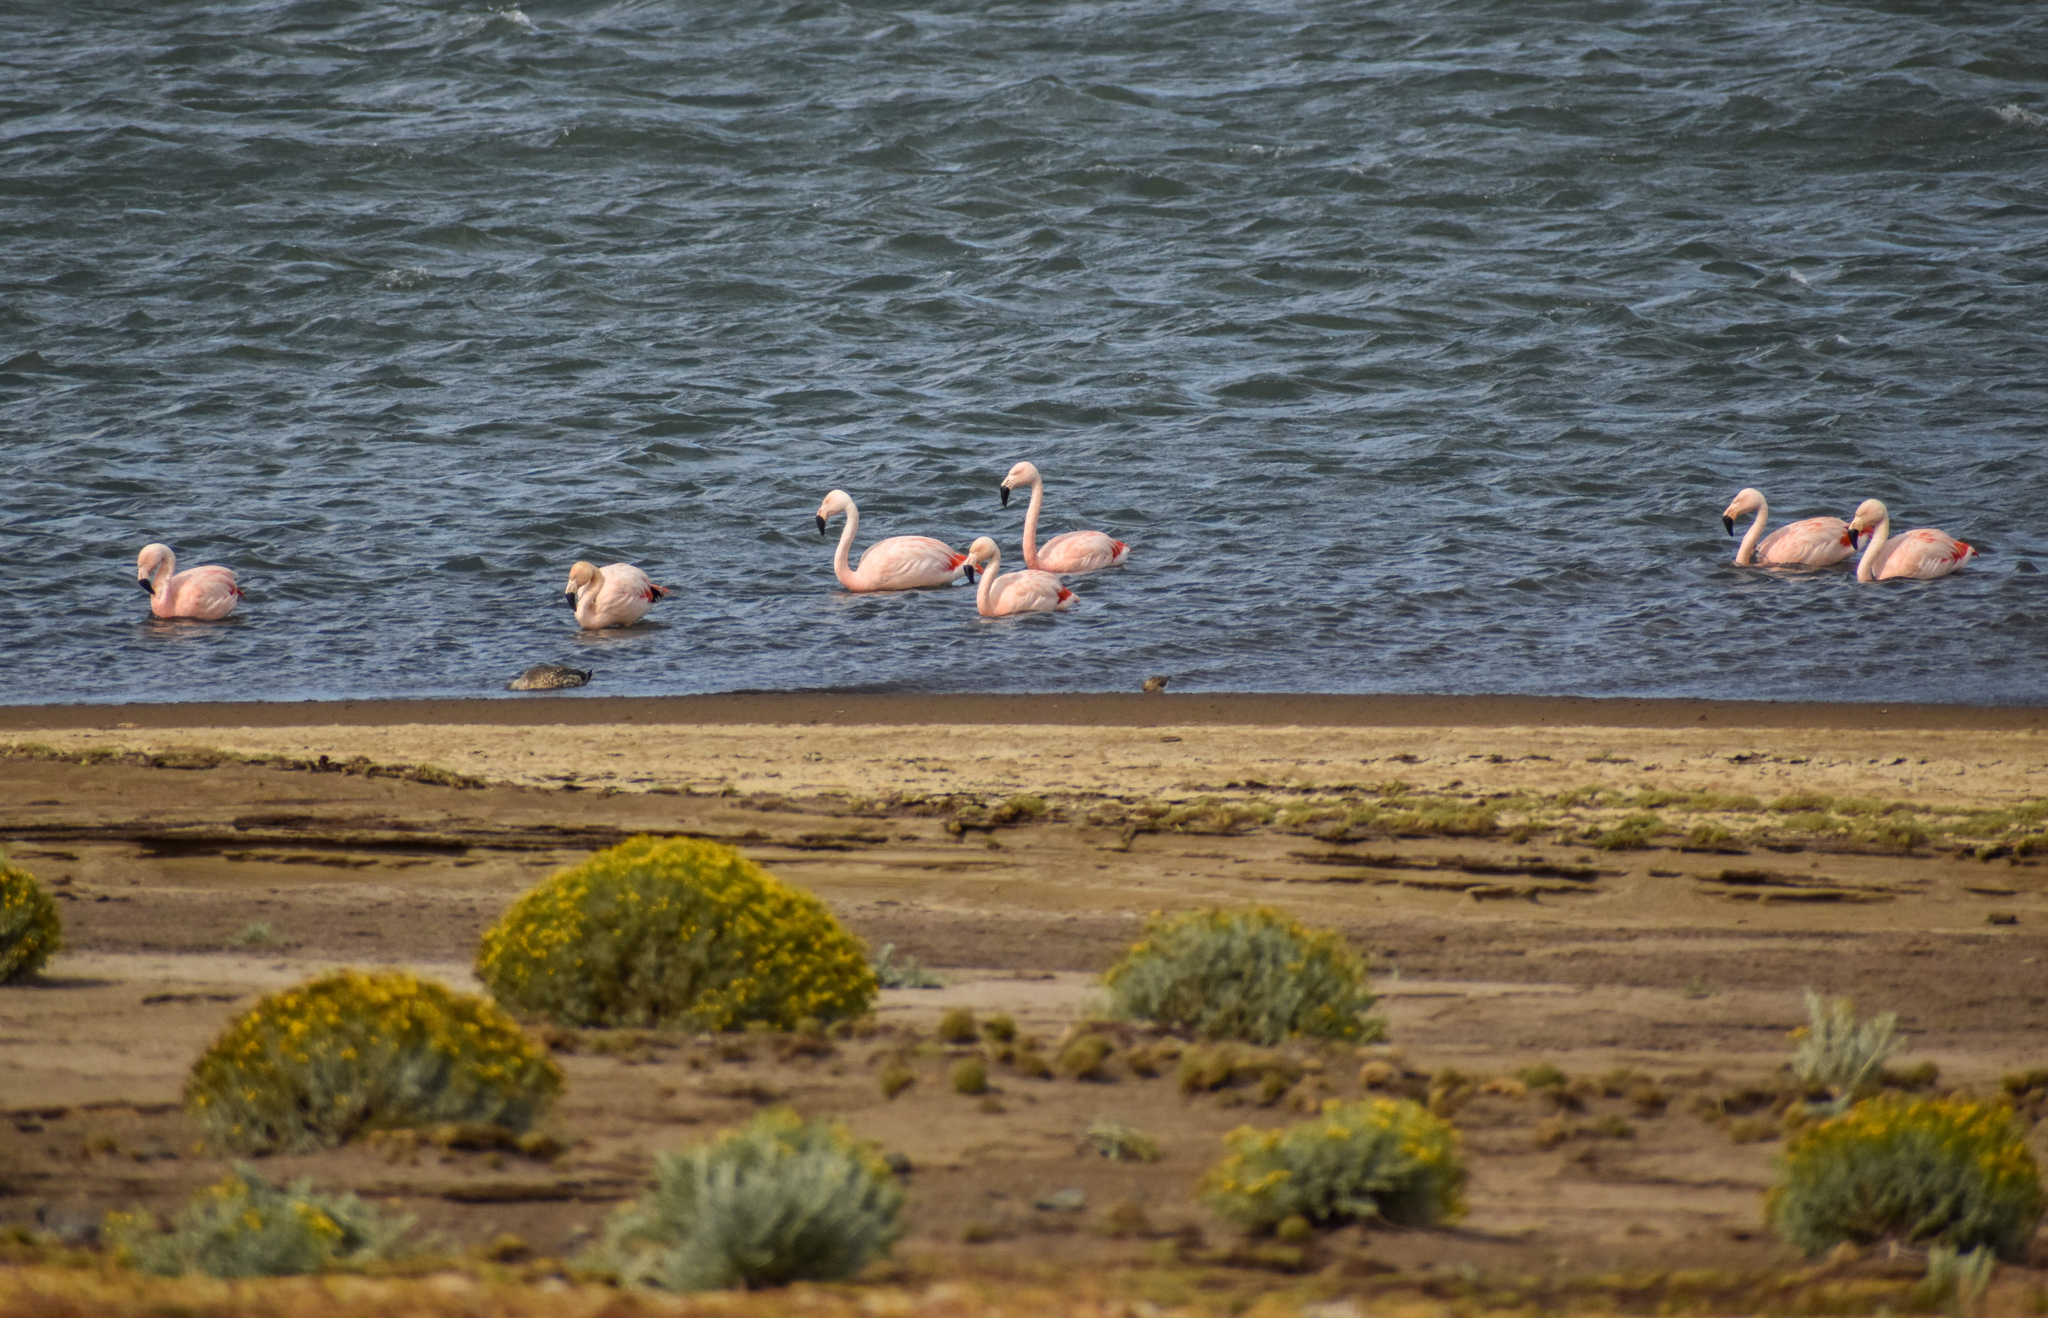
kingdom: Animalia
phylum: Chordata
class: Aves
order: Phoenicopteriformes
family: Phoenicopteridae
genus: Phoenicopterus
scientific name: Phoenicopterus chilensis
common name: Chilean flamingo
